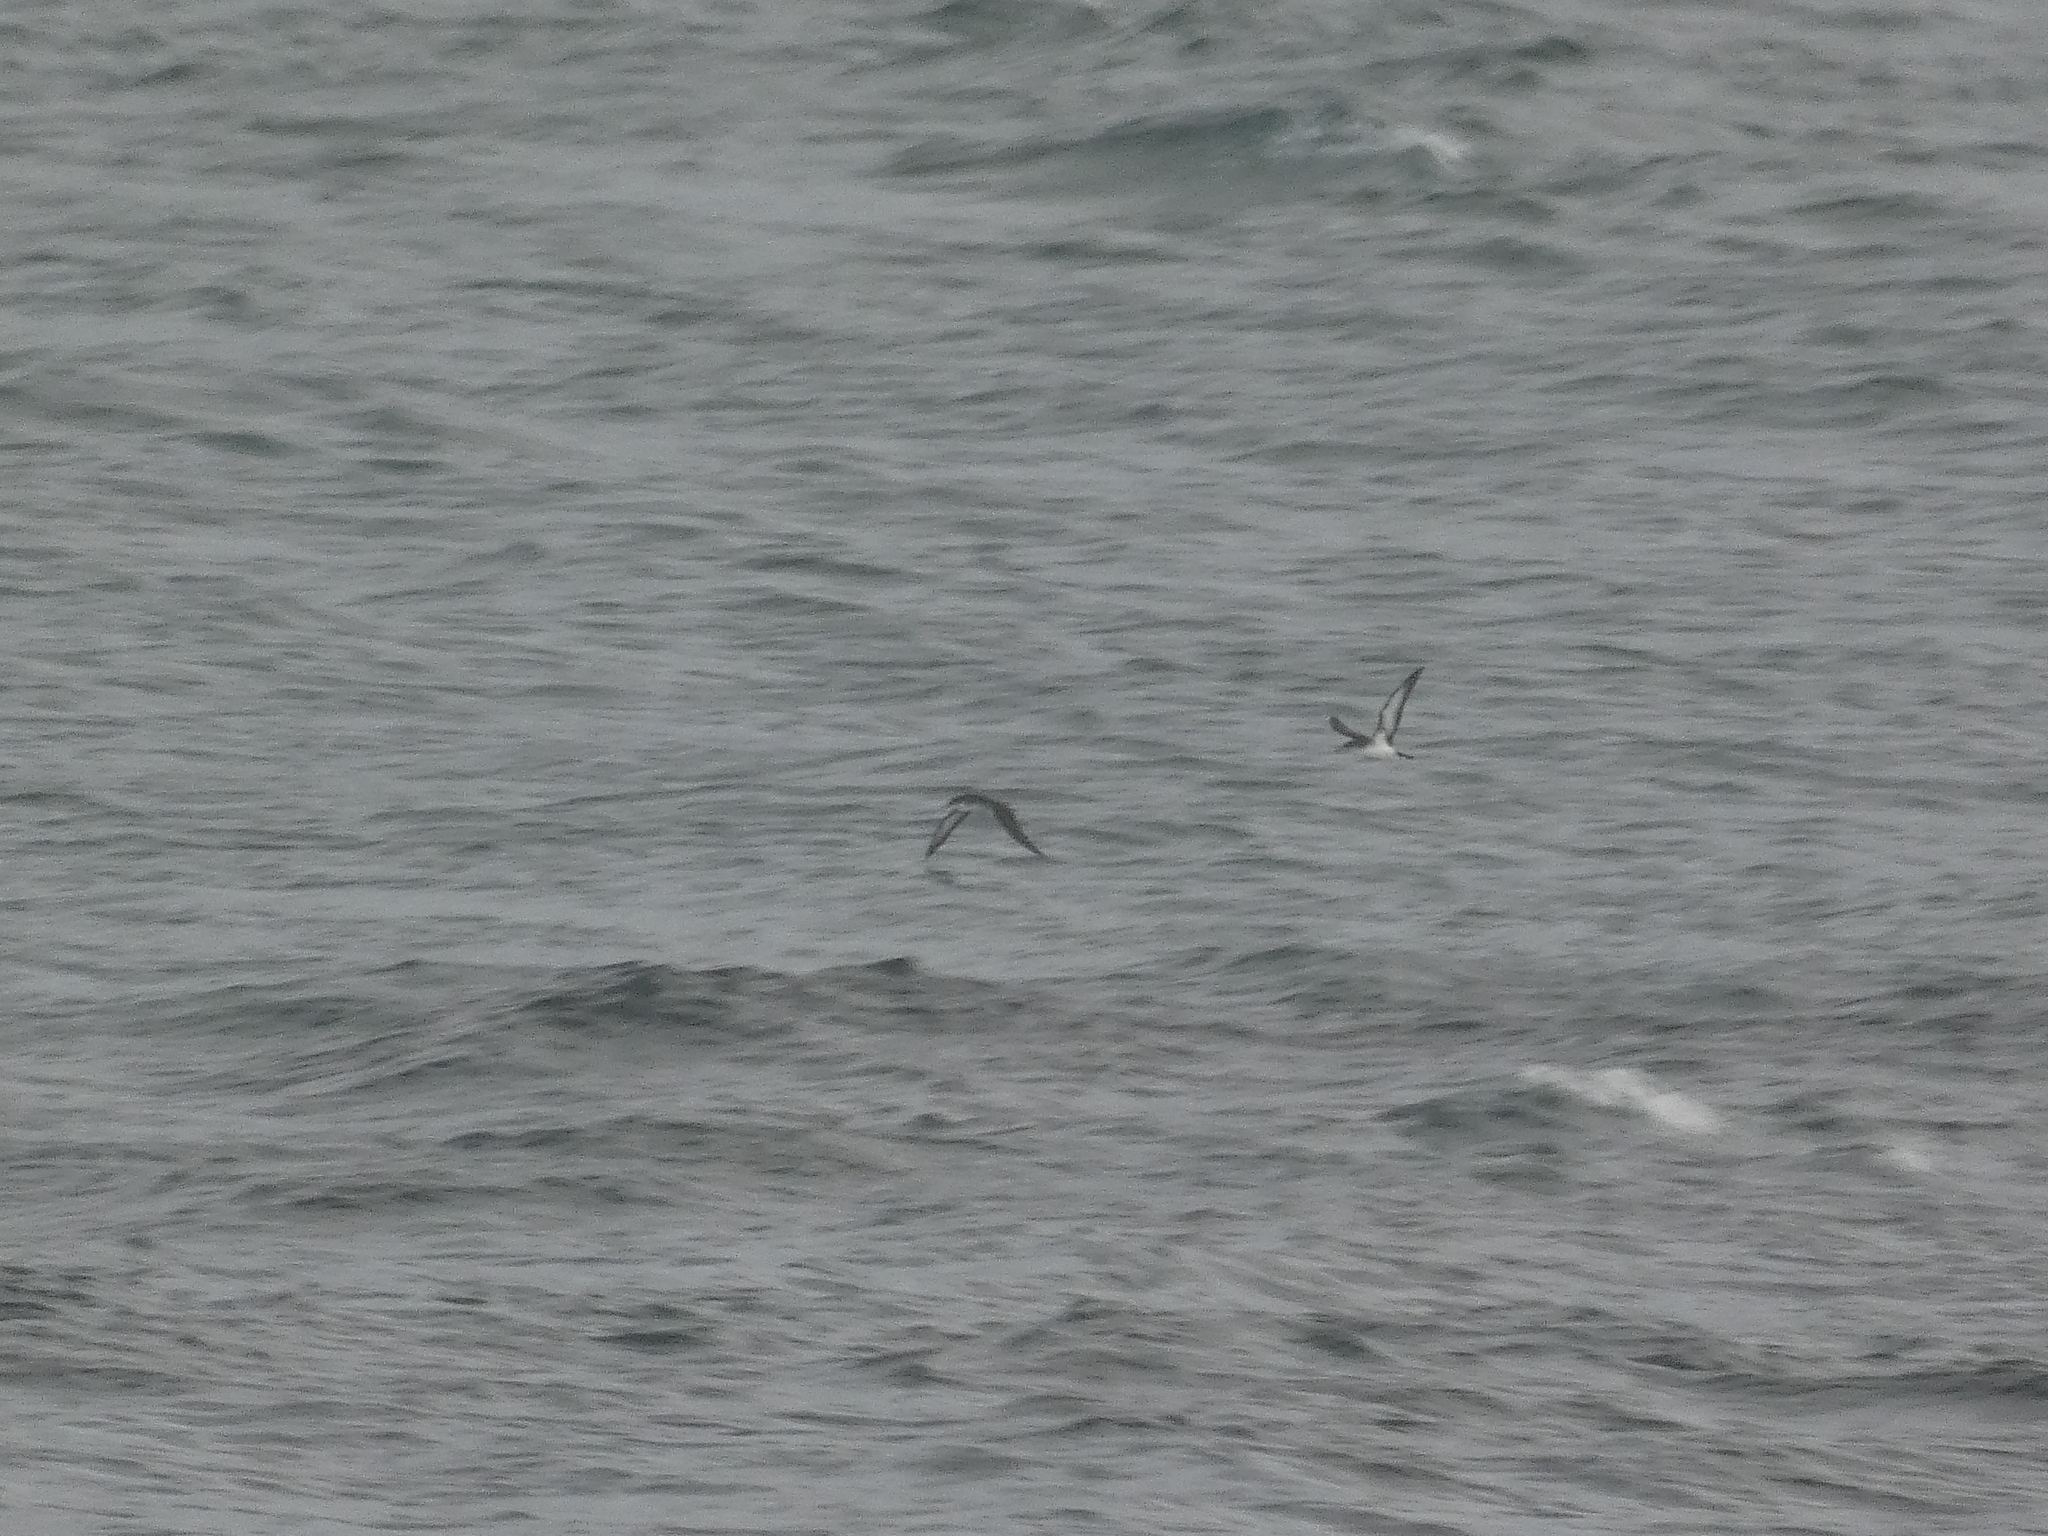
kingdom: Animalia
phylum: Chordata
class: Aves
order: Procellariiformes
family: Procellariidae
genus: Puffinus
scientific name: Puffinus puffinus
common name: Manx shearwater
